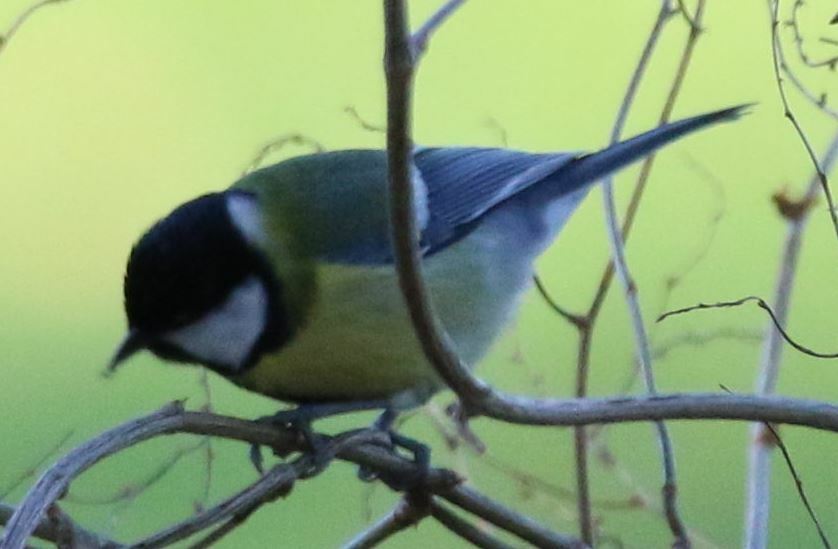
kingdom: Animalia
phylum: Chordata
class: Aves
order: Passeriformes
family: Paridae
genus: Parus
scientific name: Parus major
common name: Great tit
